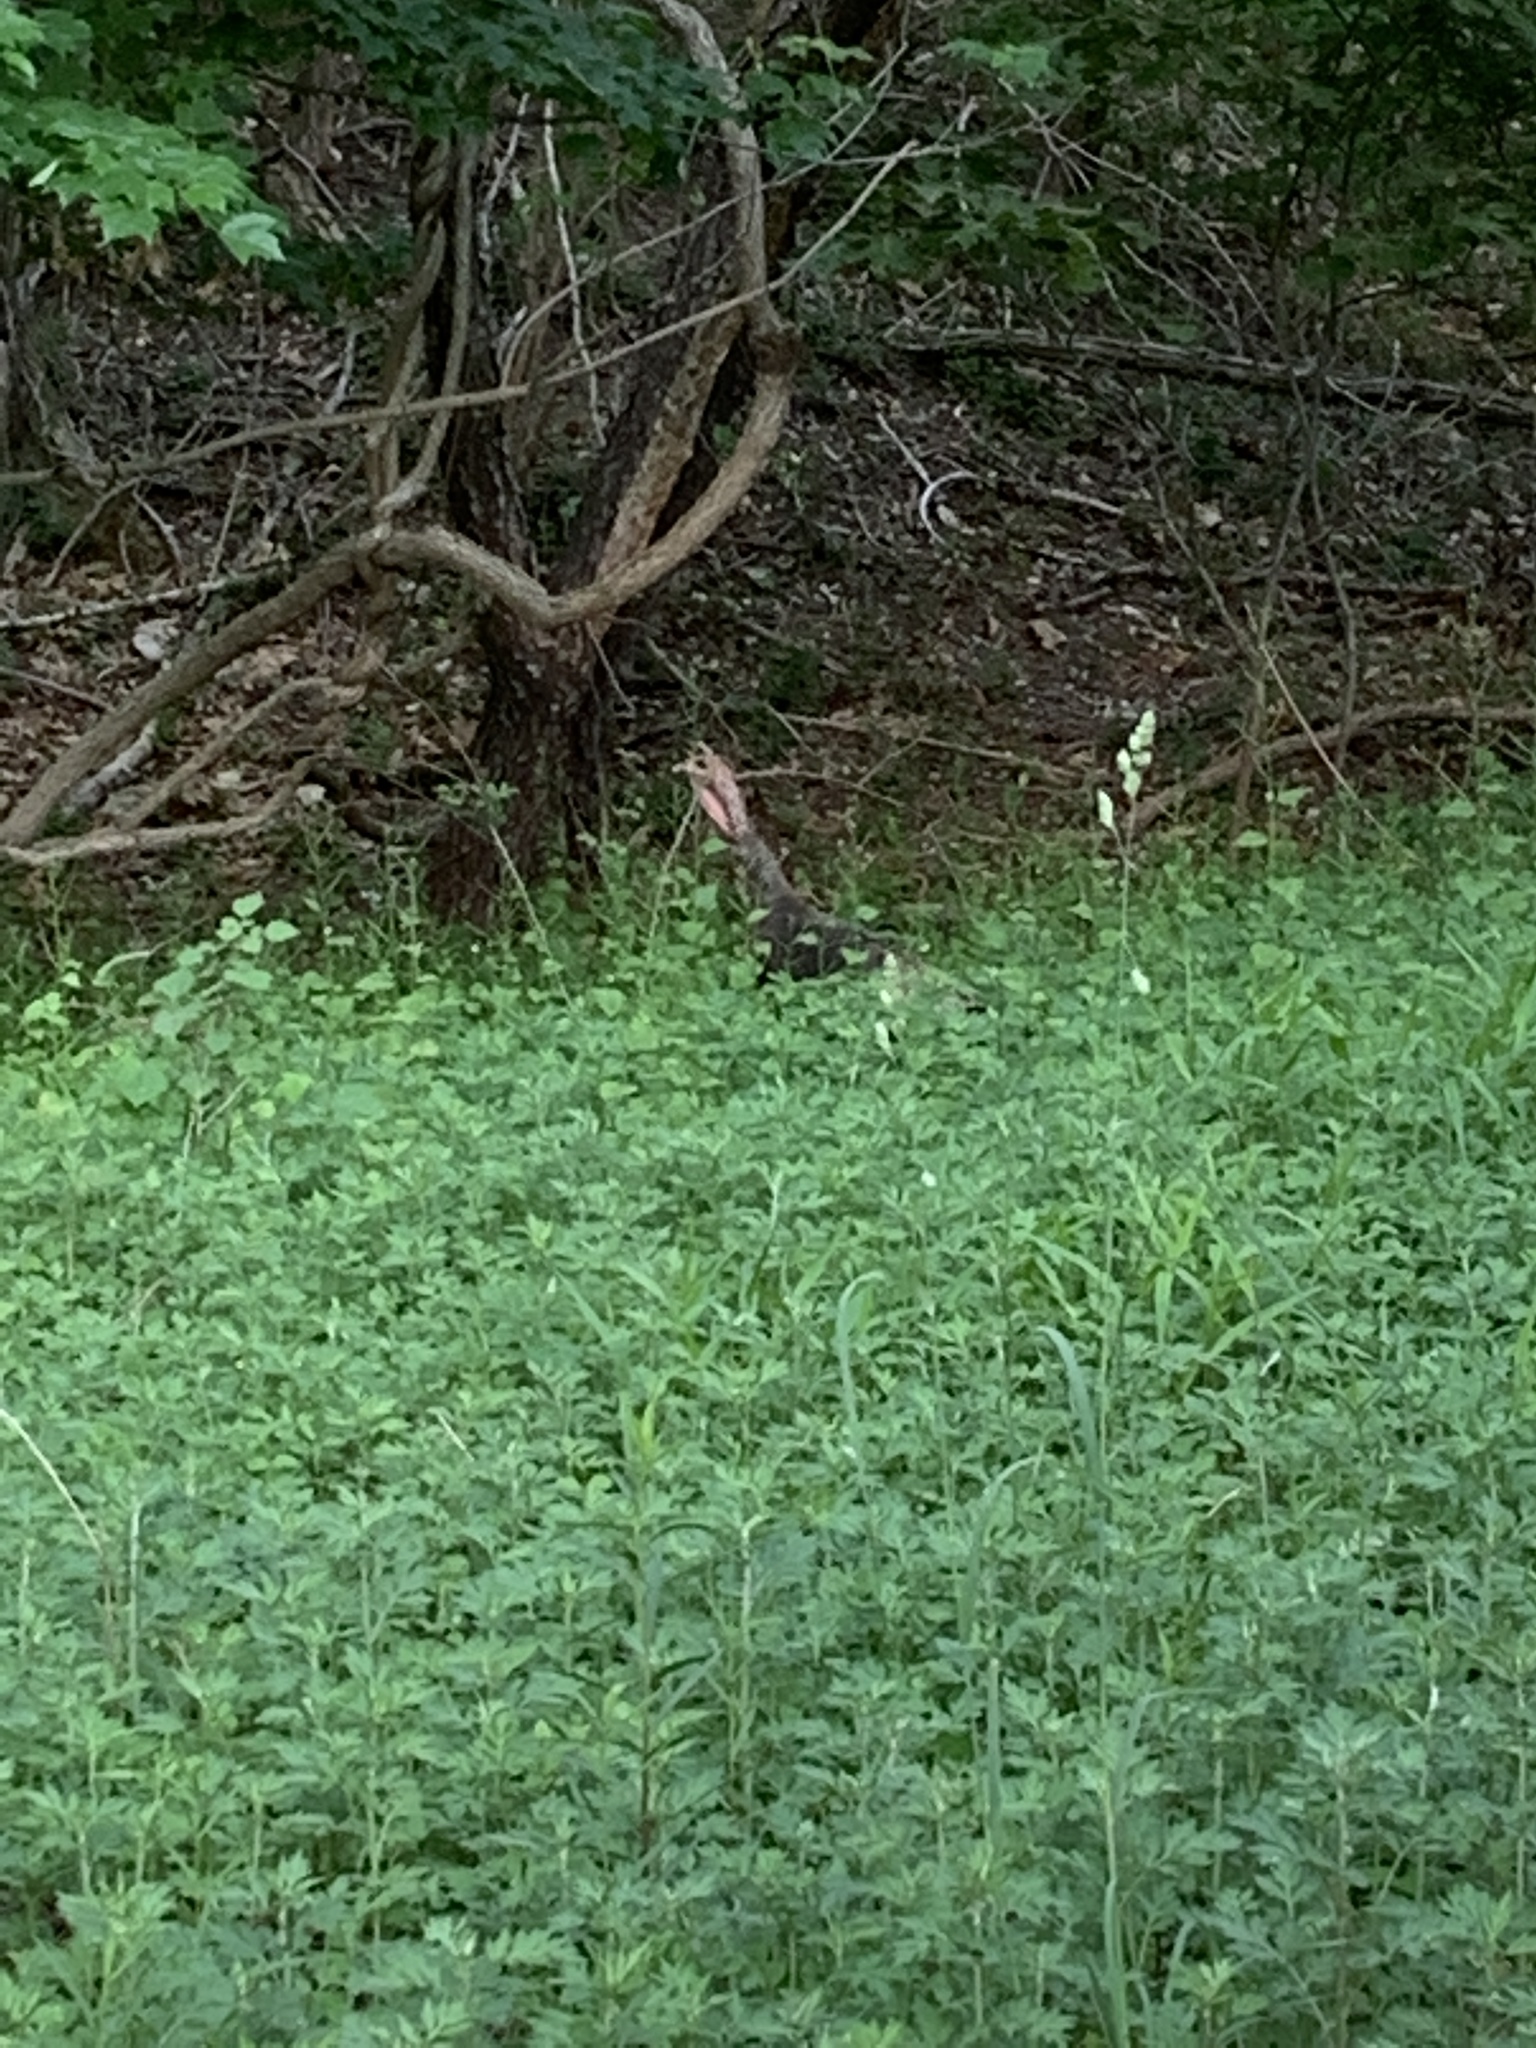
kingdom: Animalia
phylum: Chordata
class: Aves
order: Galliformes
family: Phasianidae
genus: Meleagris
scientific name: Meleagris gallopavo
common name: Wild turkey
